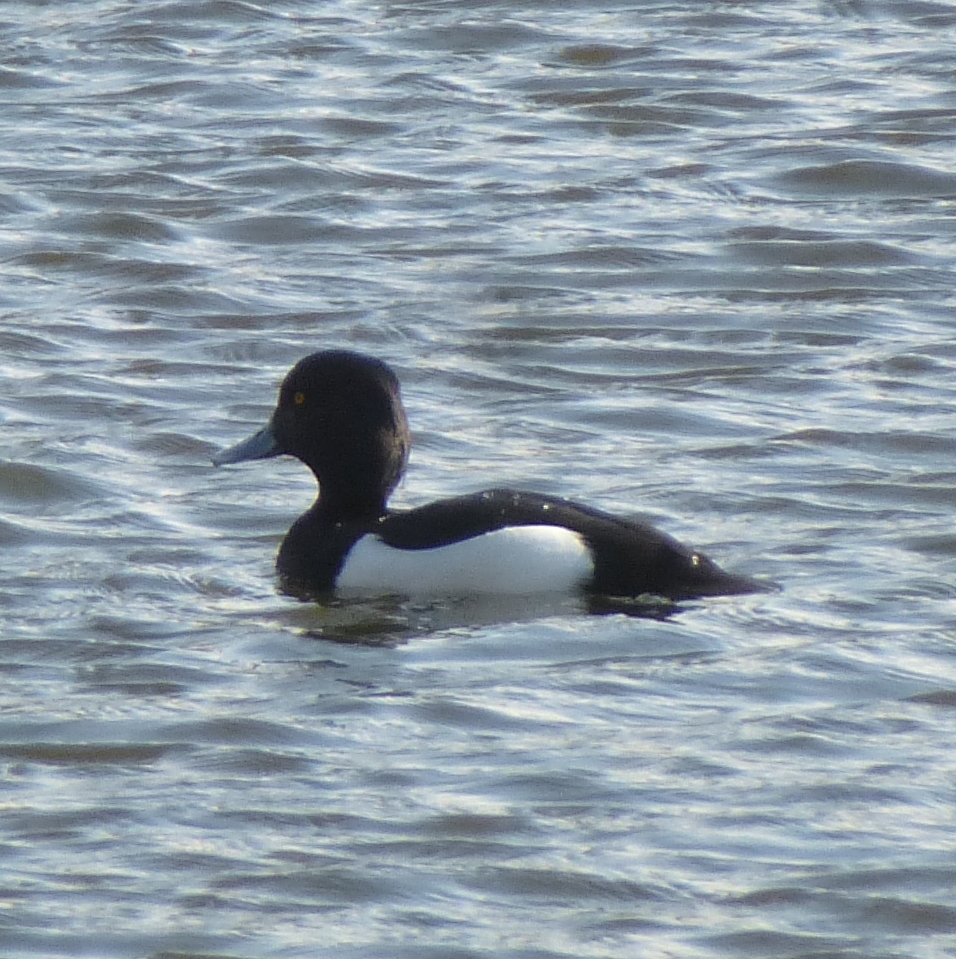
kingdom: Animalia
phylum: Chordata
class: Aves
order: Anseriformes
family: Anatidae
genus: Aythya
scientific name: Aythya fuligula
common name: Tufted duck
